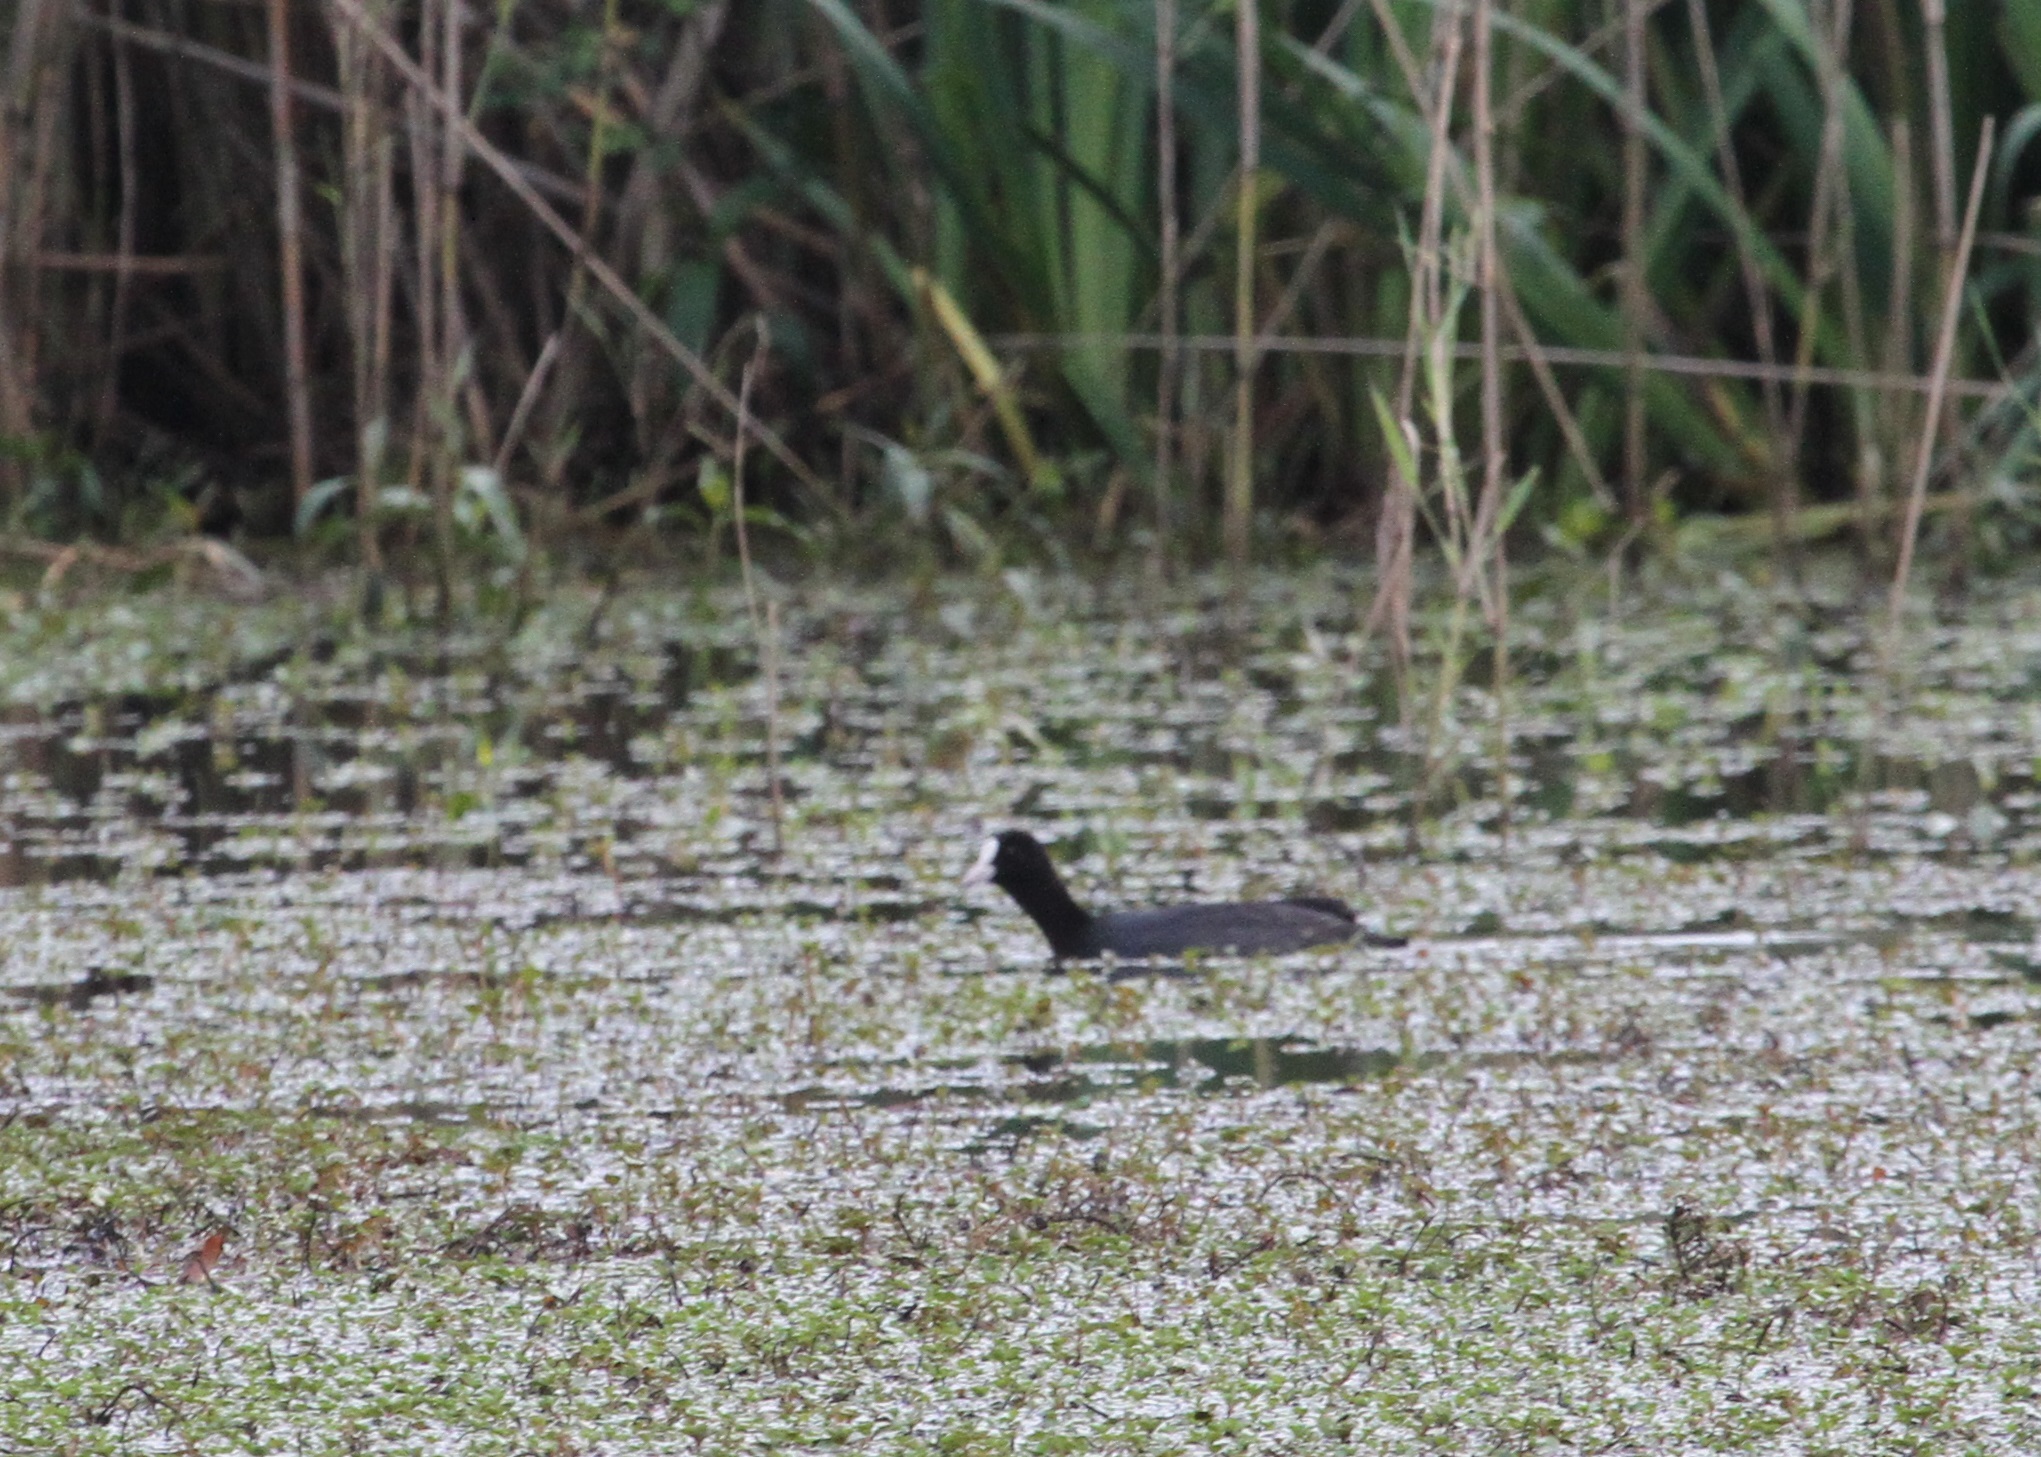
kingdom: Animalia
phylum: Chordata
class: Aves
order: Gruiformes
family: Rallidae
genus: Fulica
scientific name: Fulica atra
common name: Eurasian coot
